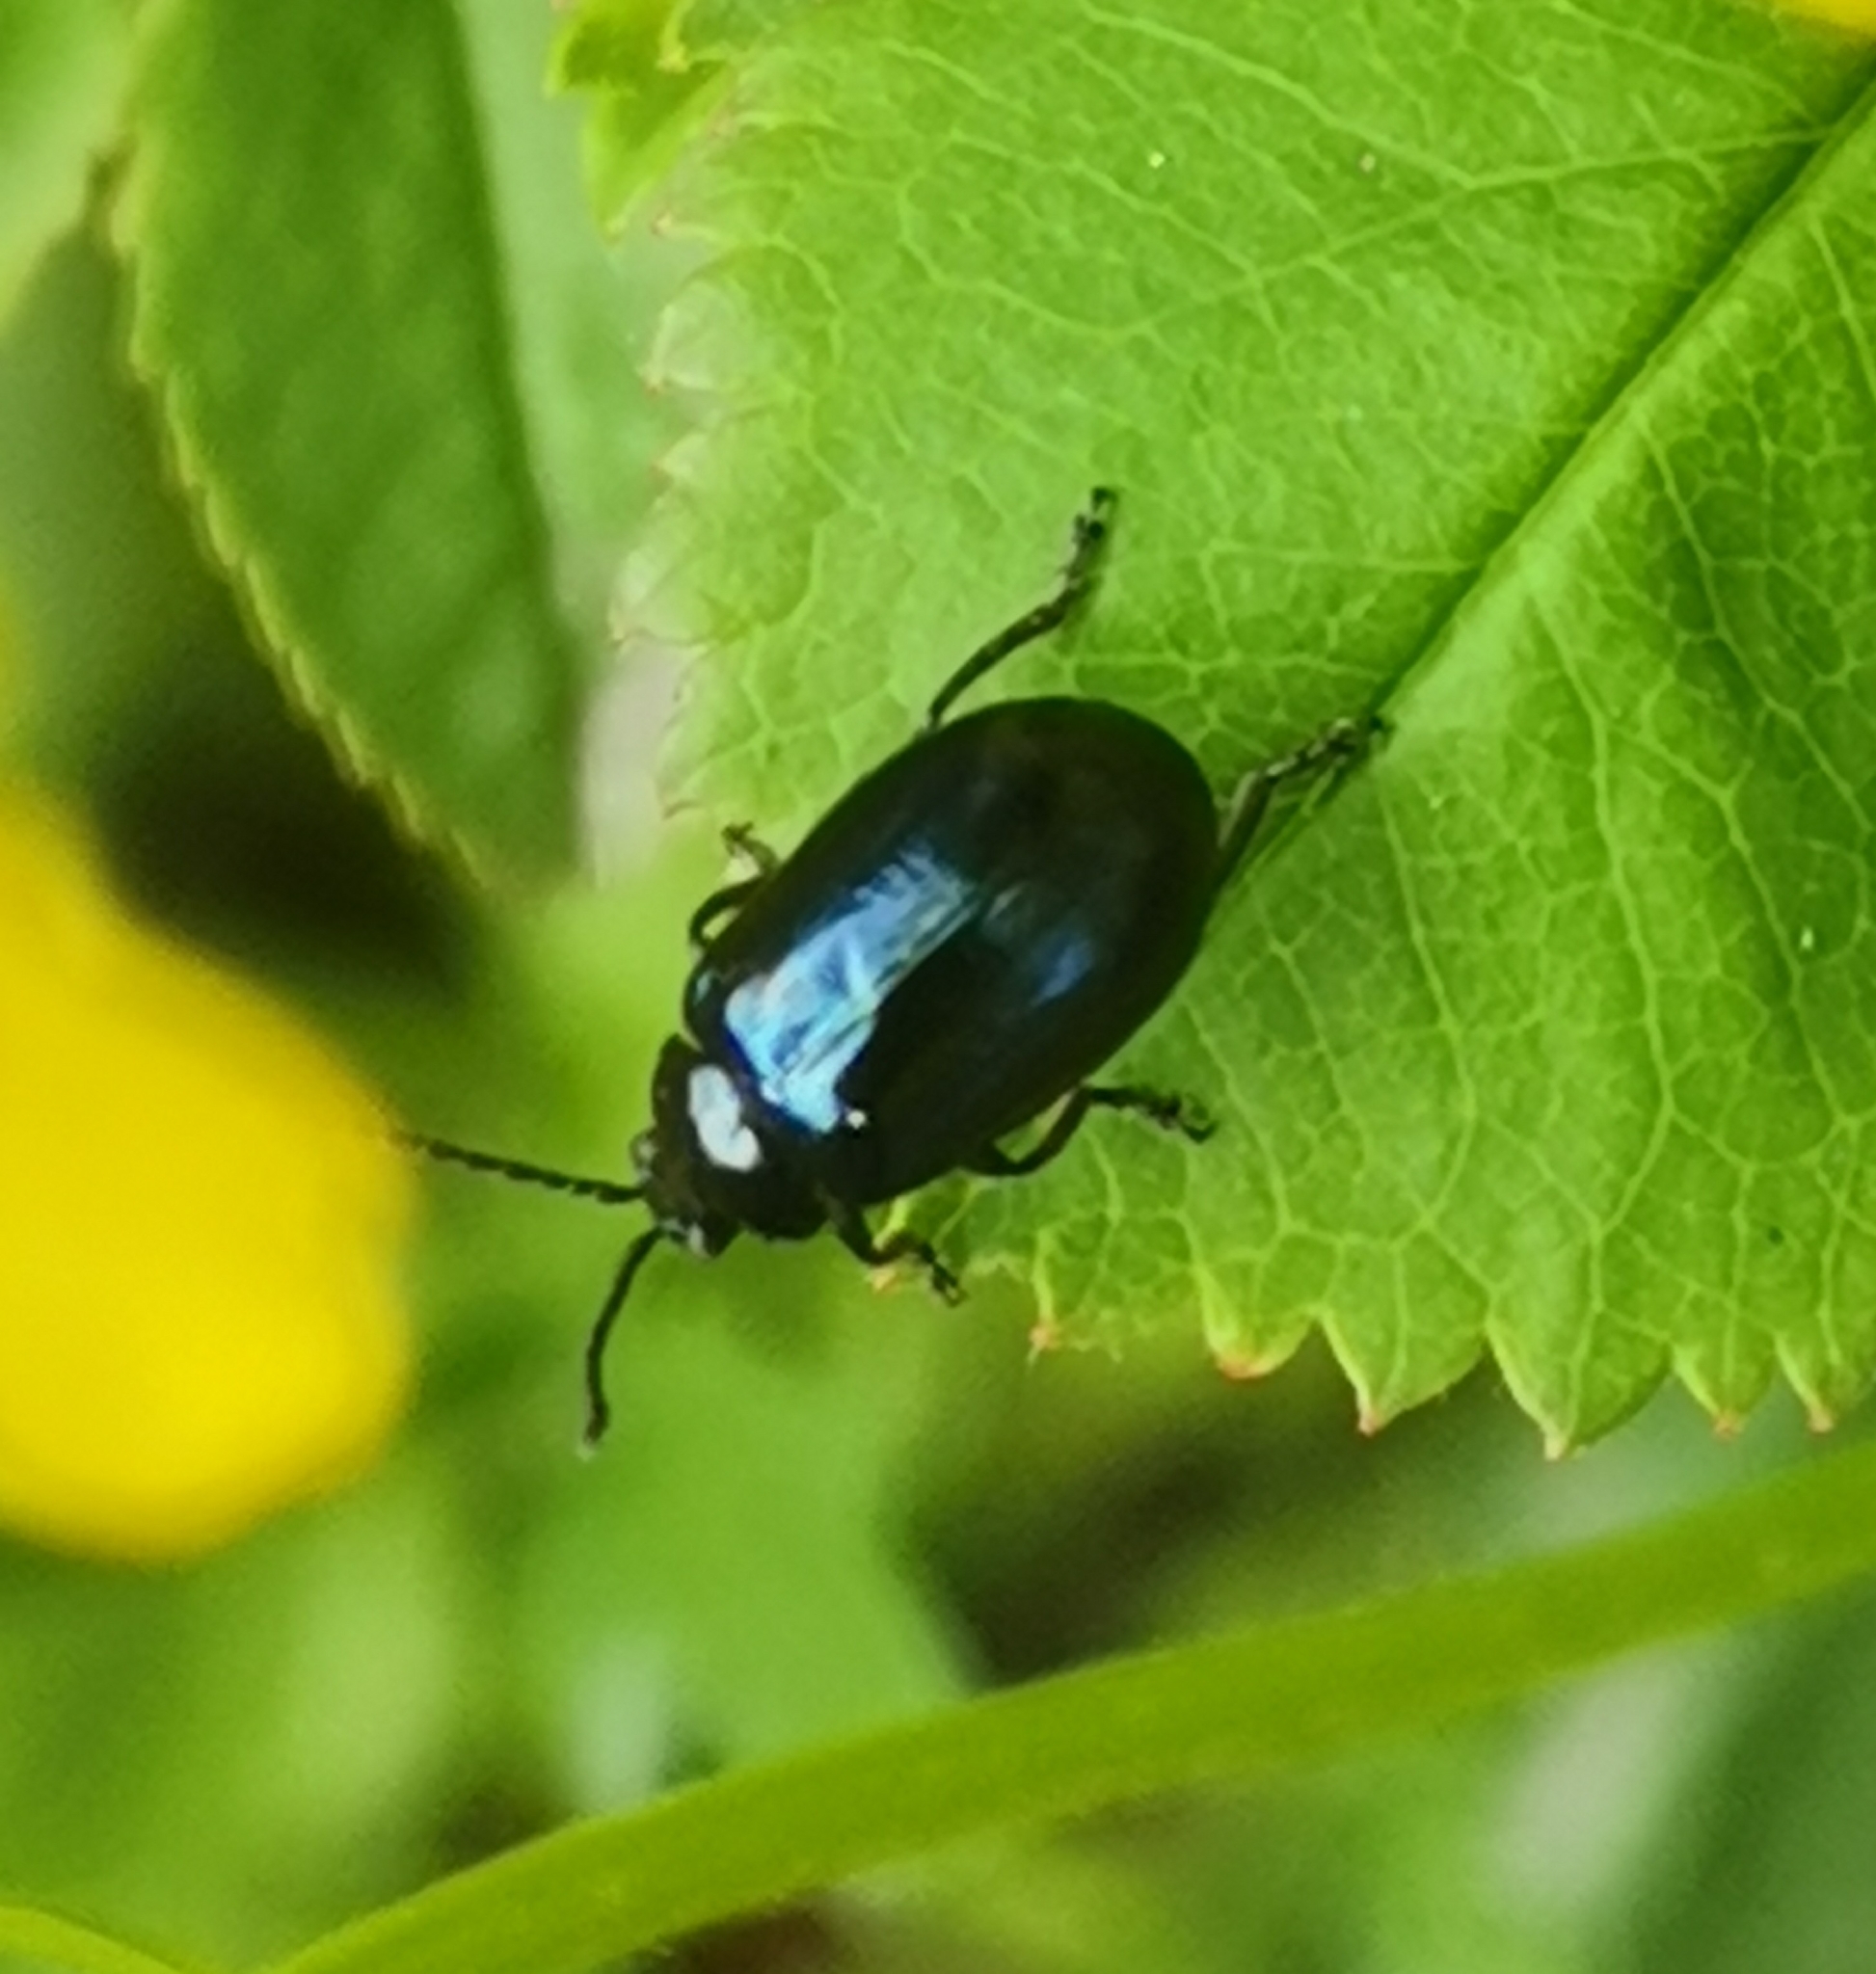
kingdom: Animalia
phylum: Arthropoda
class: Insecta
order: Coleoptera
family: Chrysomelidae
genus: Agelastica
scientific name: Agelastica alni
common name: Alder leaf beetle
